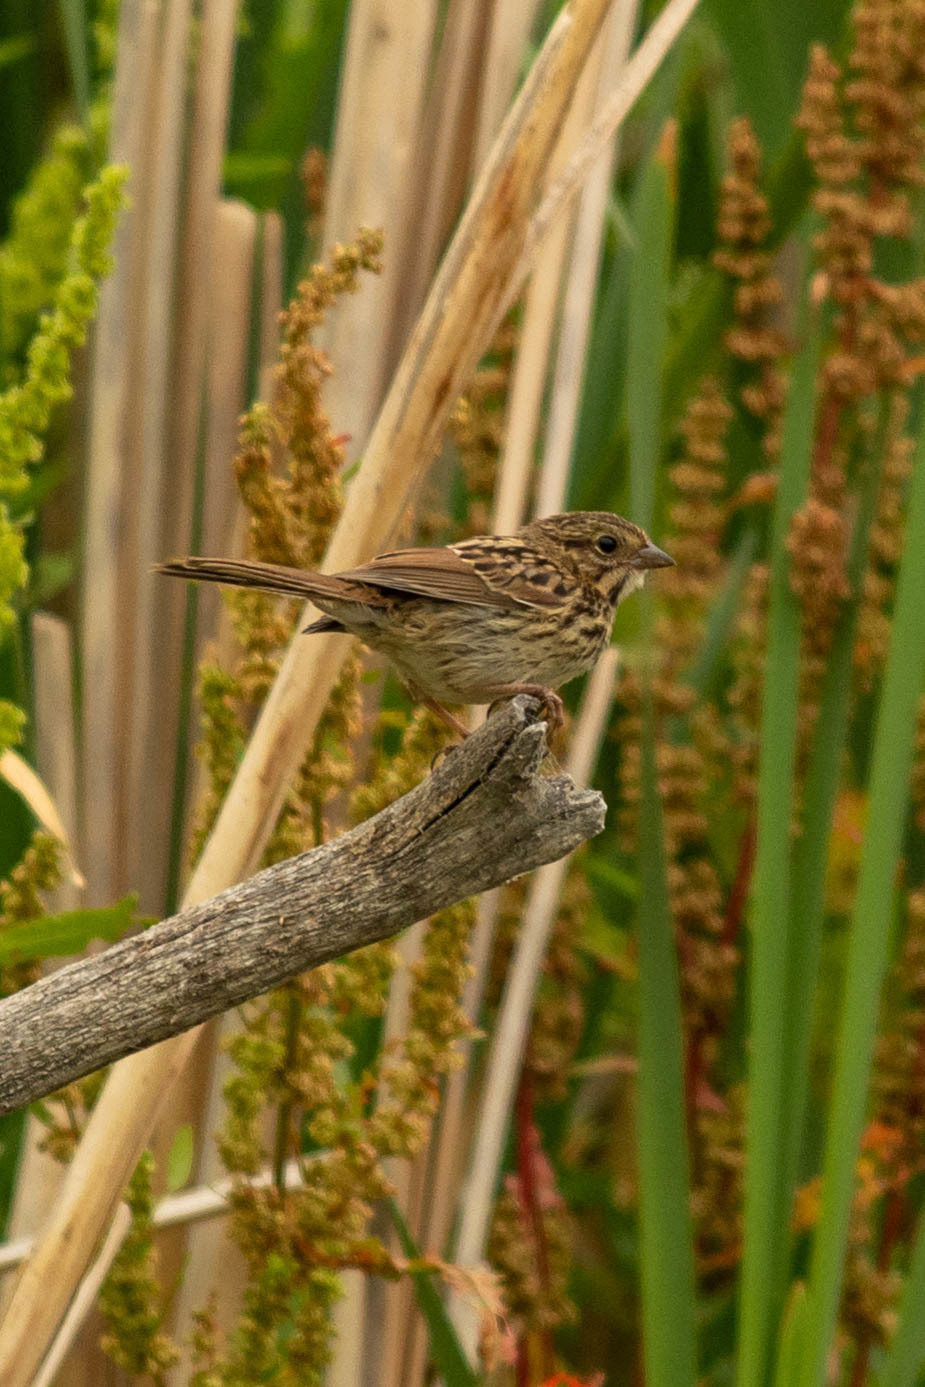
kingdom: Animalia
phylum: Chordata
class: Aves
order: Passeriformes
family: Passerellidae
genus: Melospiza
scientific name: Melospiza melodia
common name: Song sparrow
